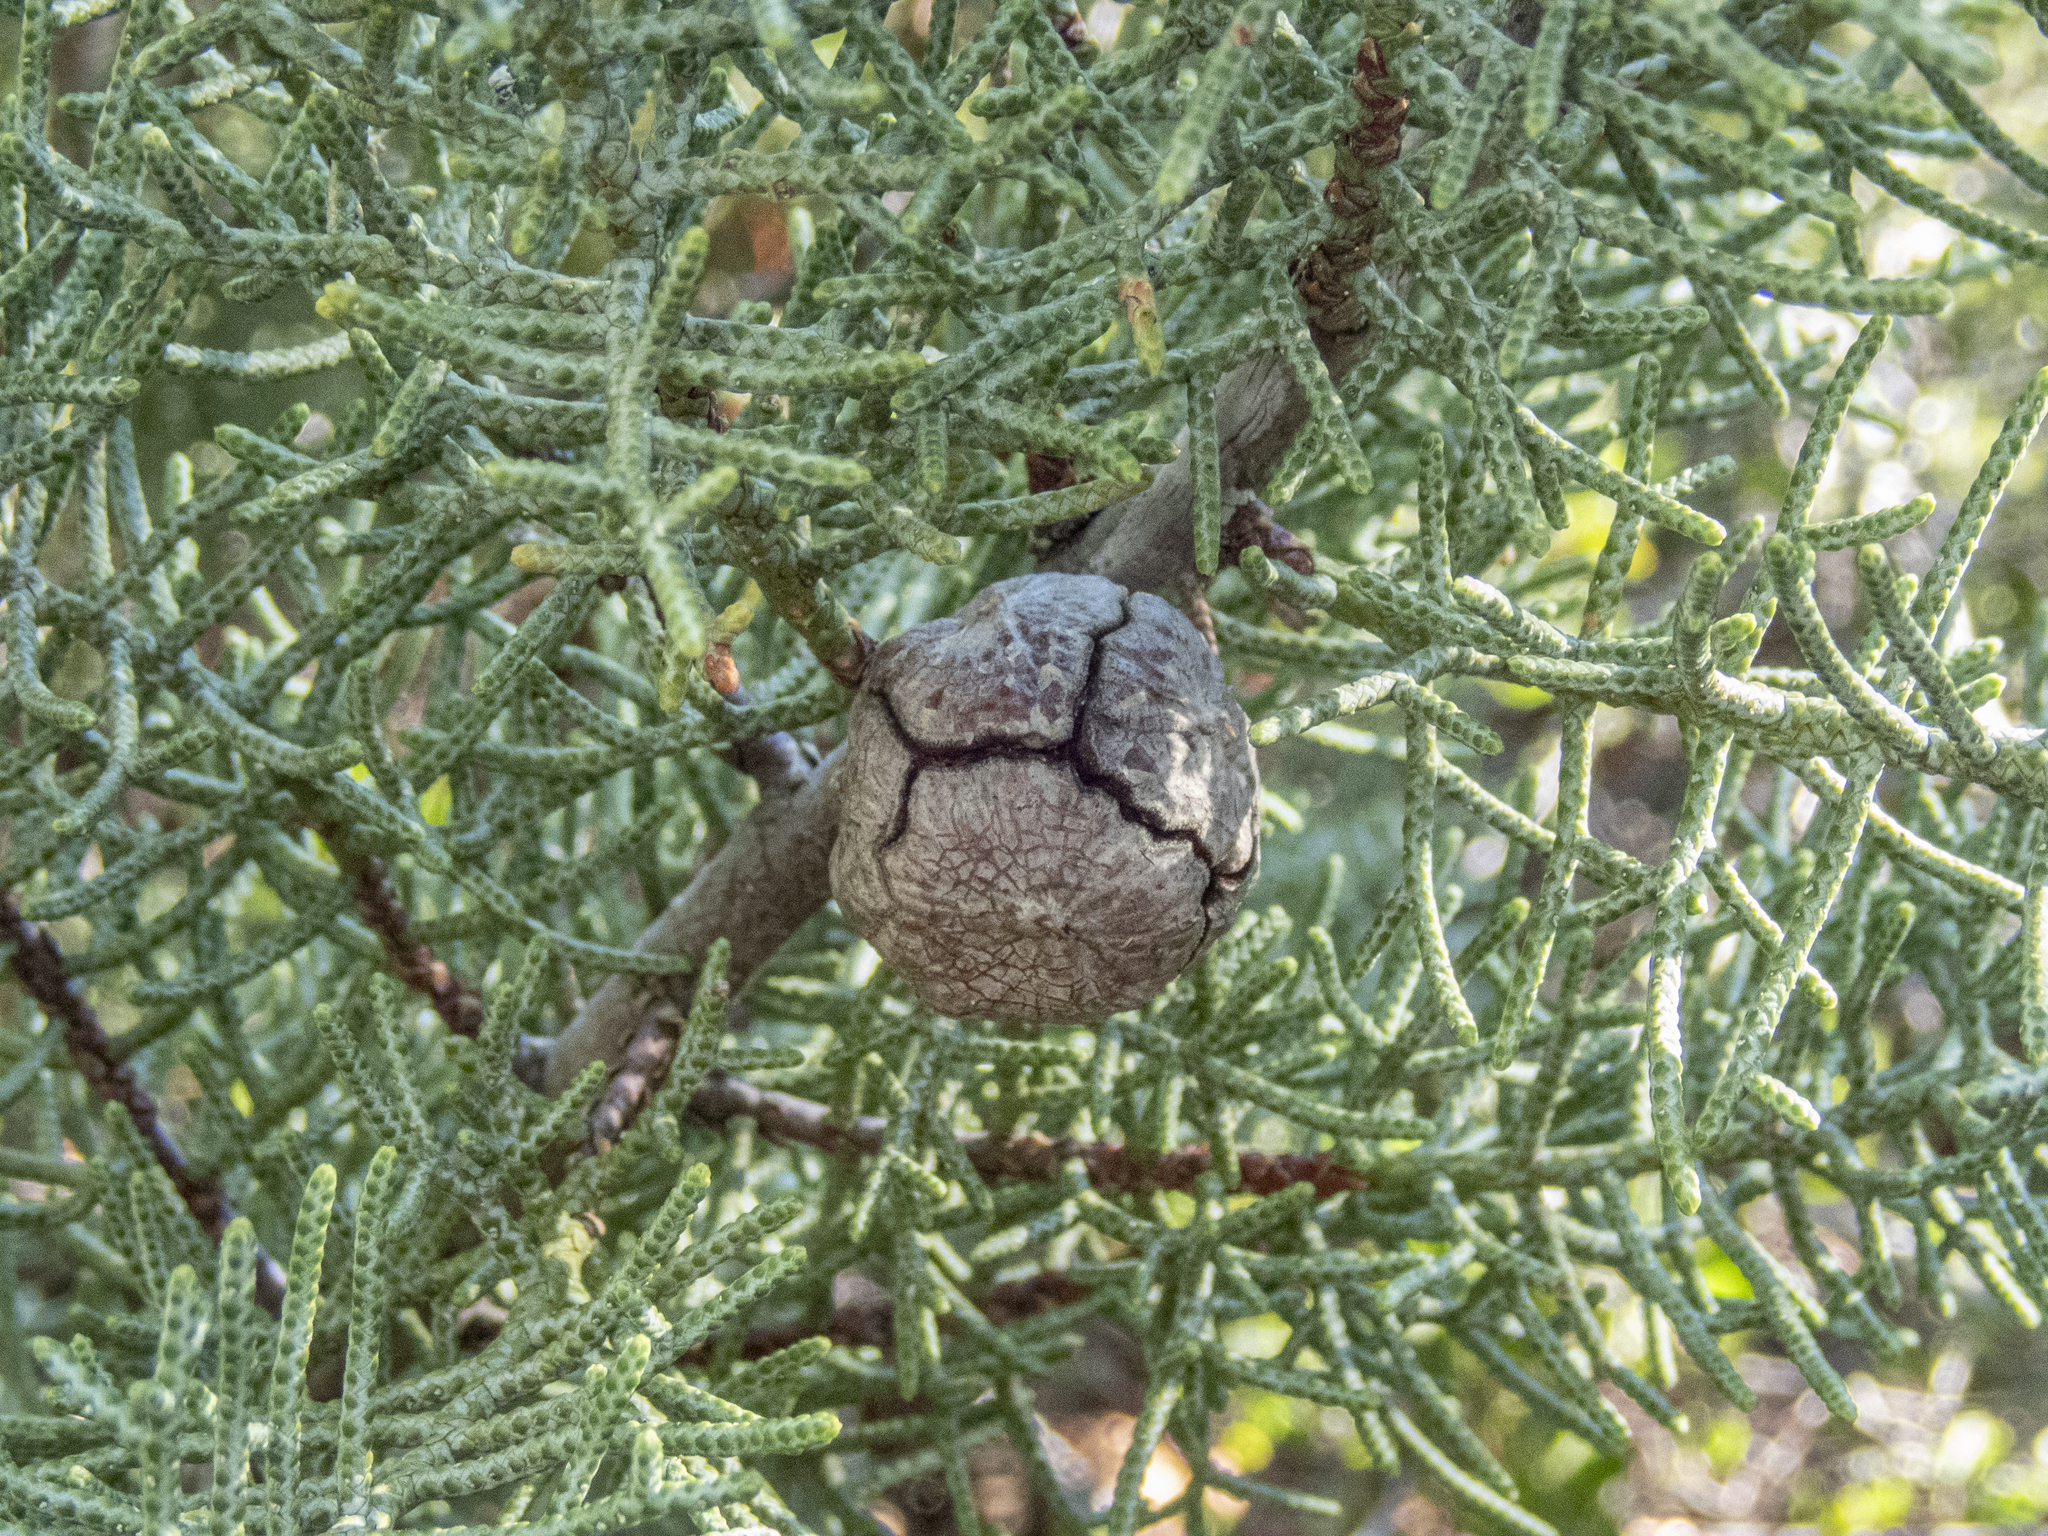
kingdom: Plantae
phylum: Tracheophyta
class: Pinopsida
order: Pinales
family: Cupressaceae
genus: Cupressus
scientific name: Cupressus arizonica
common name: Arizona cypress
